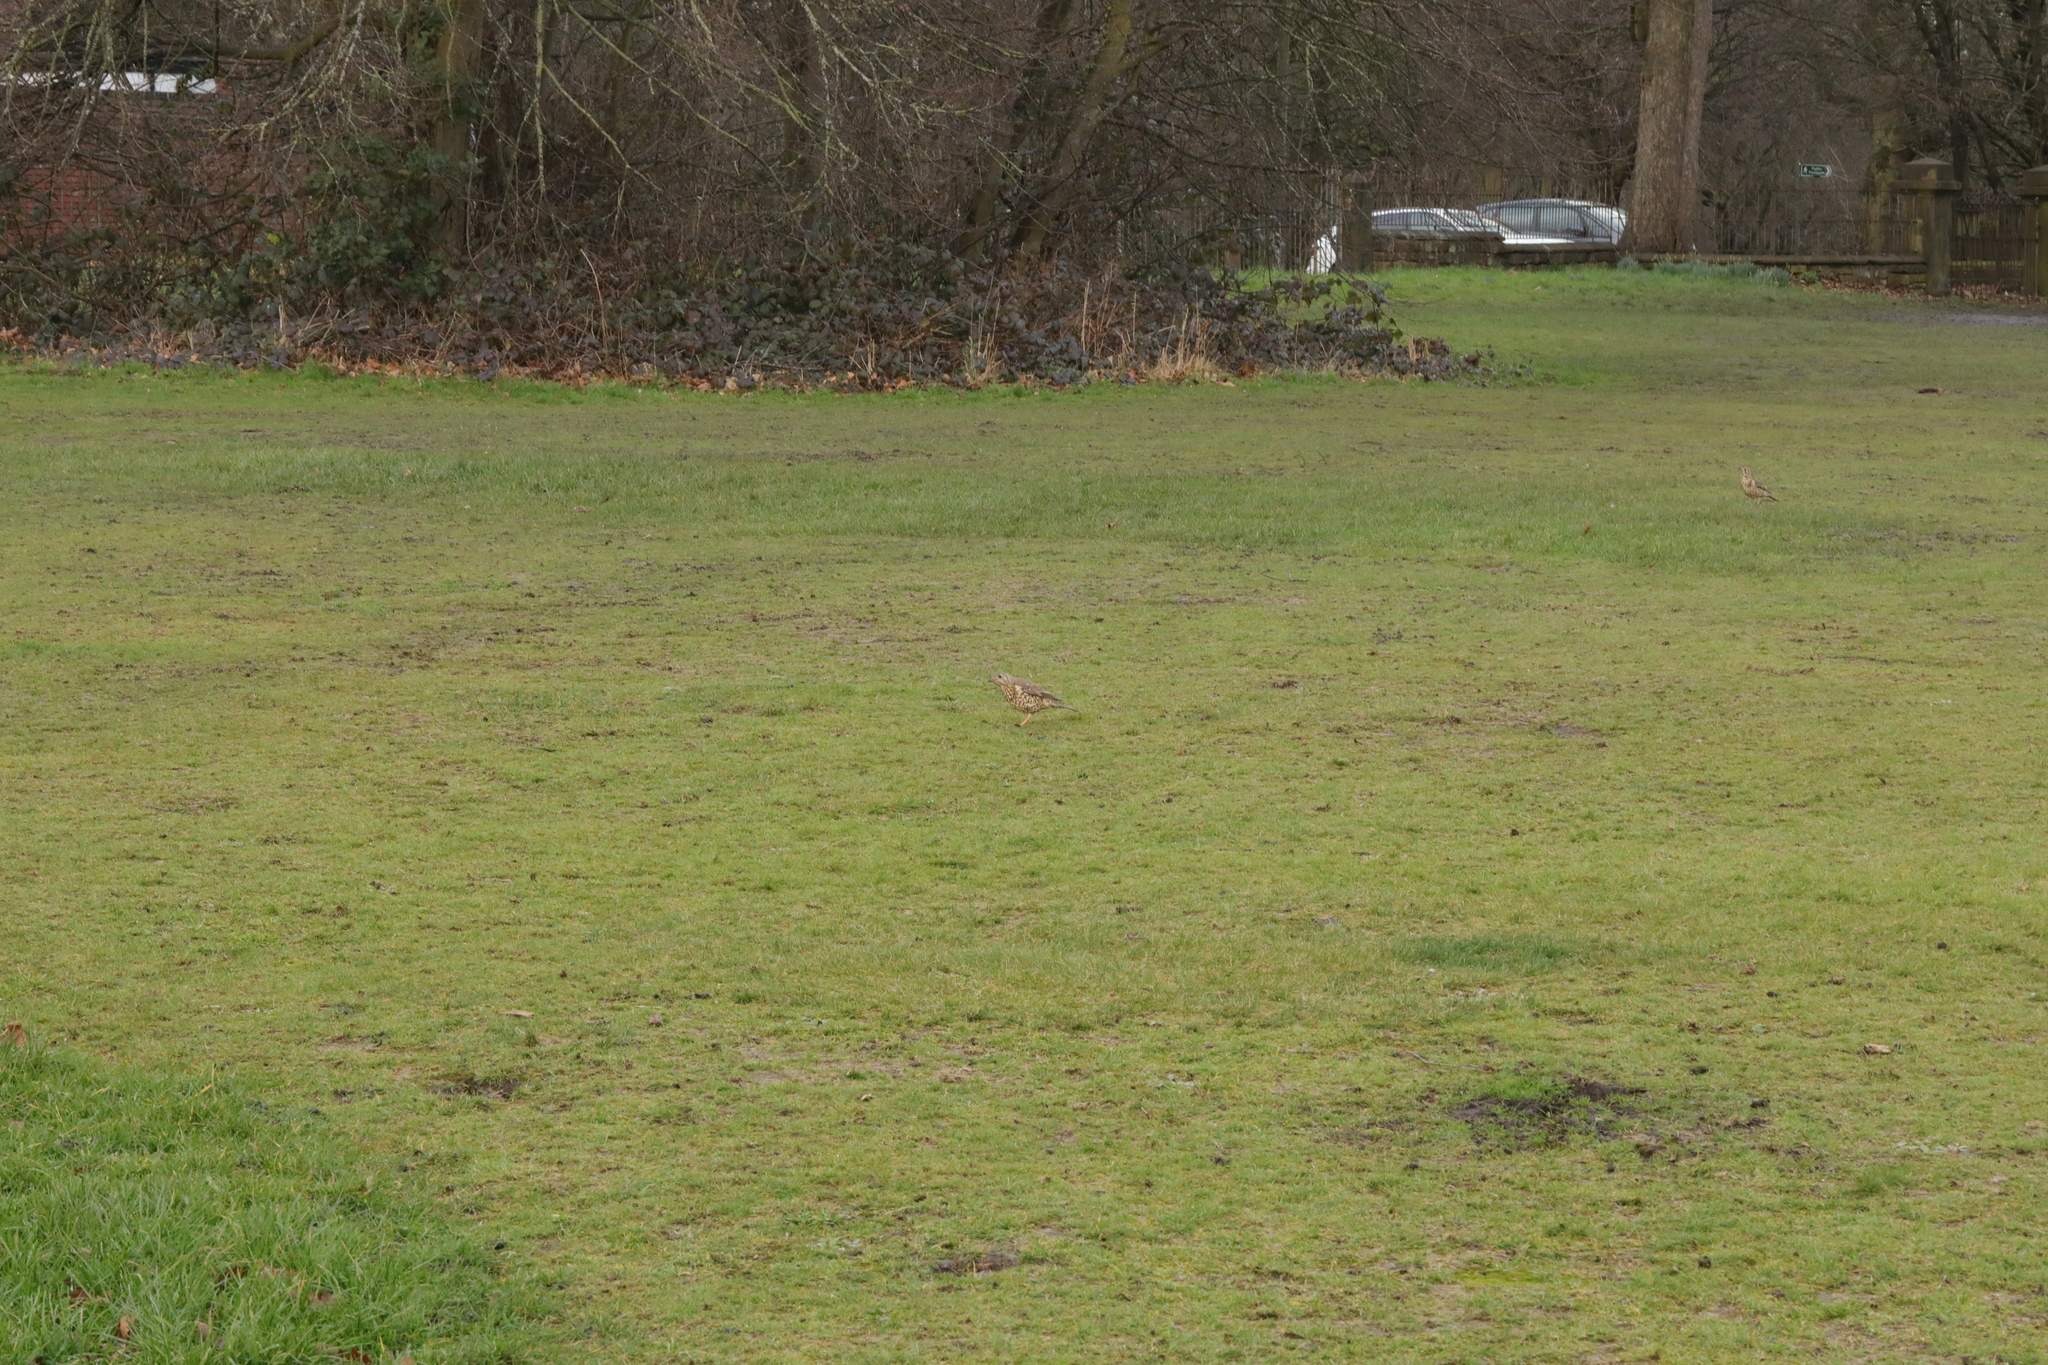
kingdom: Animalia
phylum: Chordata
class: Aves
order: Passeriformes
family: Turdidae
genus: Turdus
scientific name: Turdus viscivorus
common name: Mistle thrush
